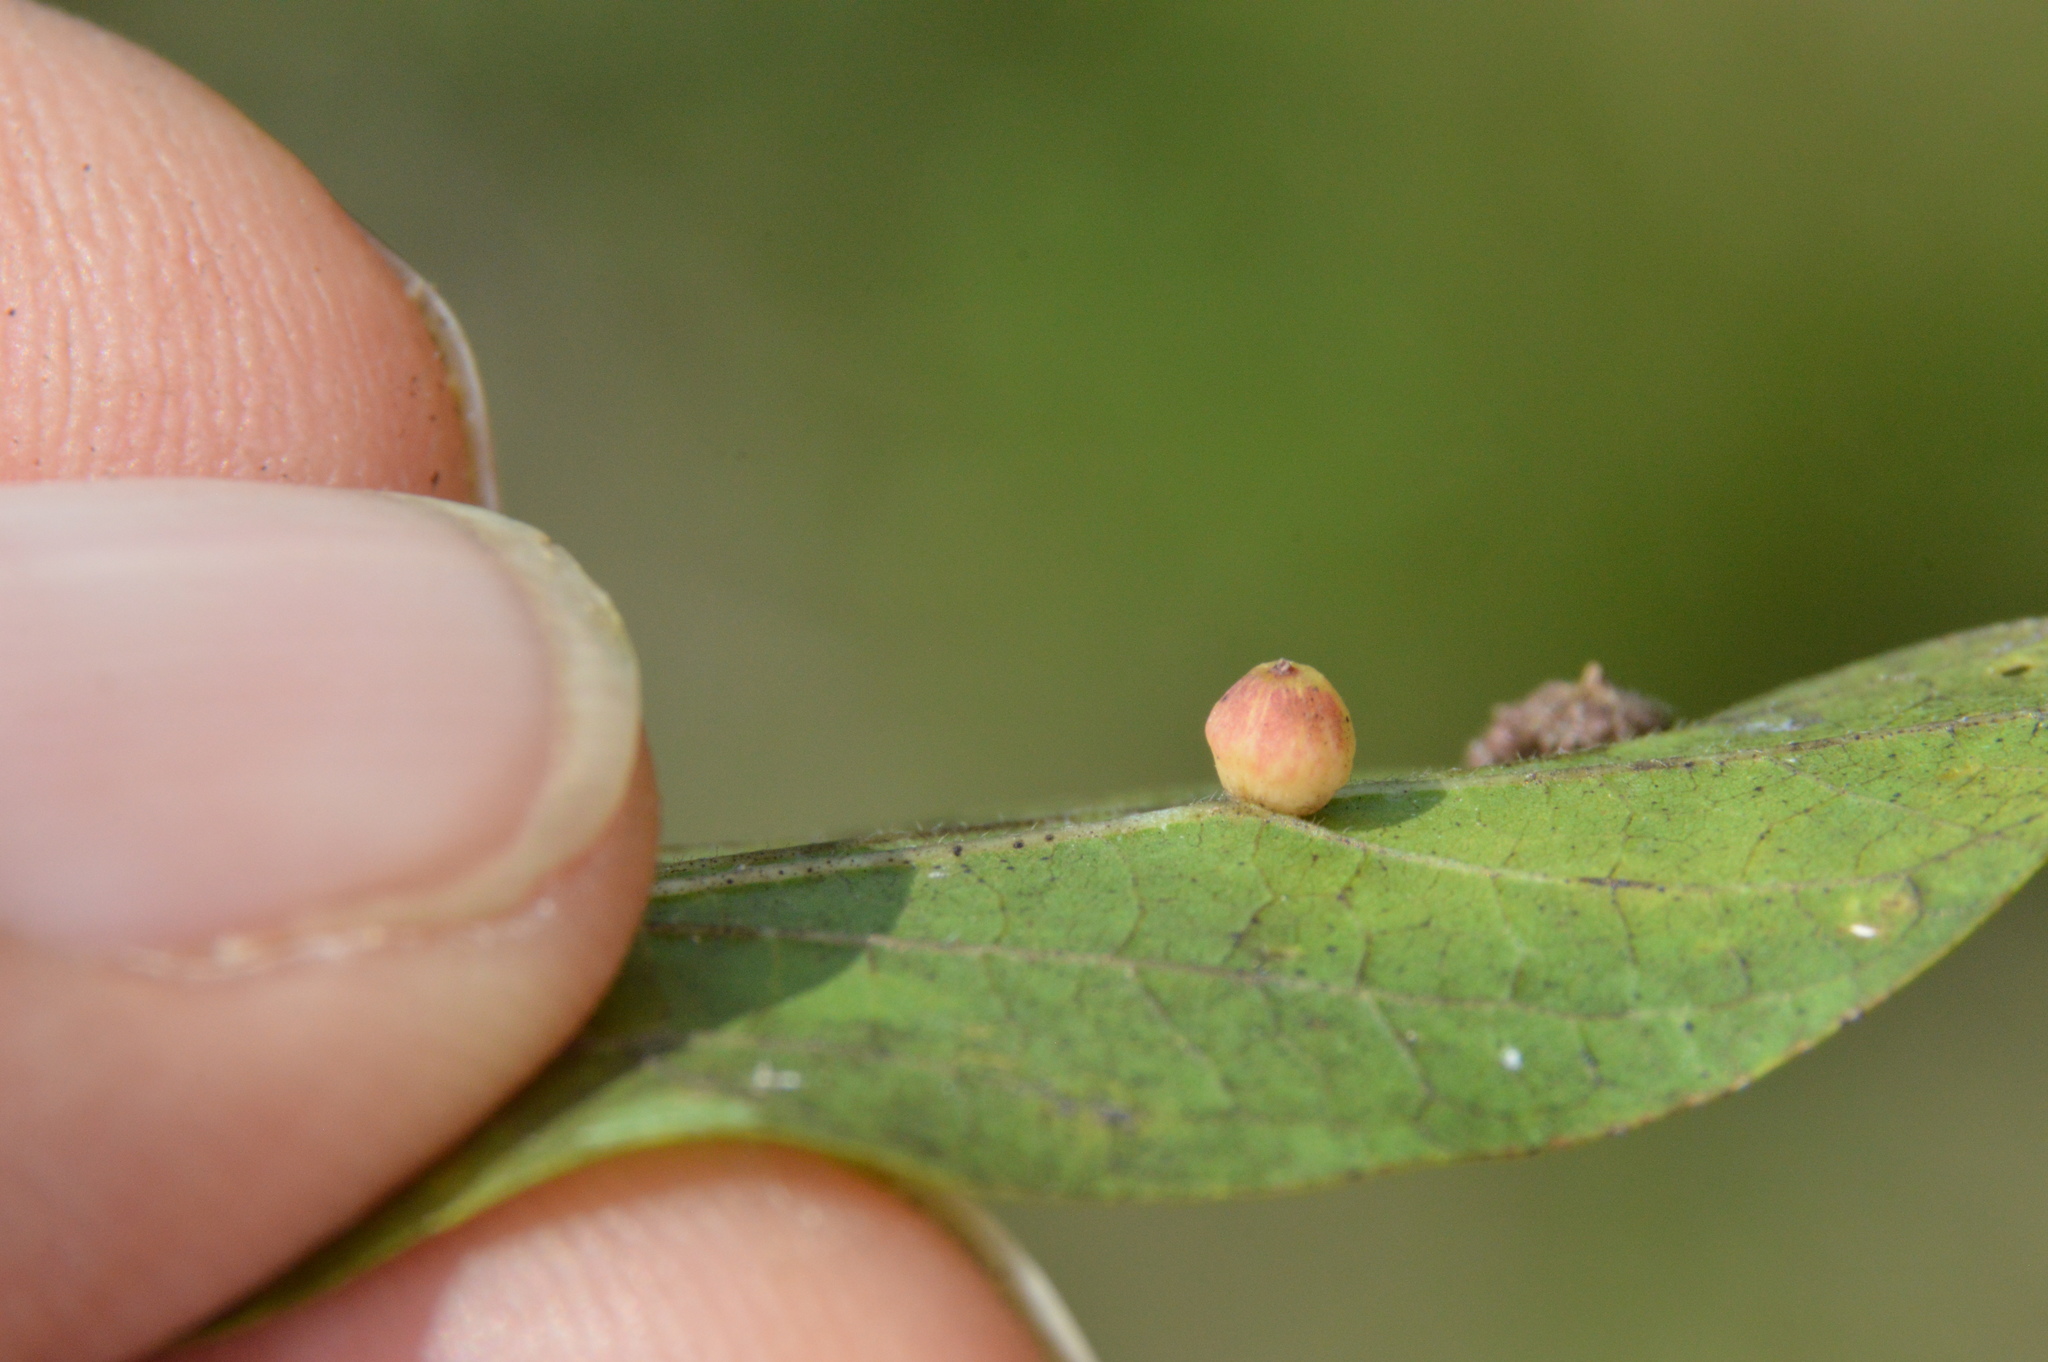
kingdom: Animalia
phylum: Arthropoda
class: Insecta
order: Diptera
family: Cecidomyiidae
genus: Celticecis
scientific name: Celticecis globosa
